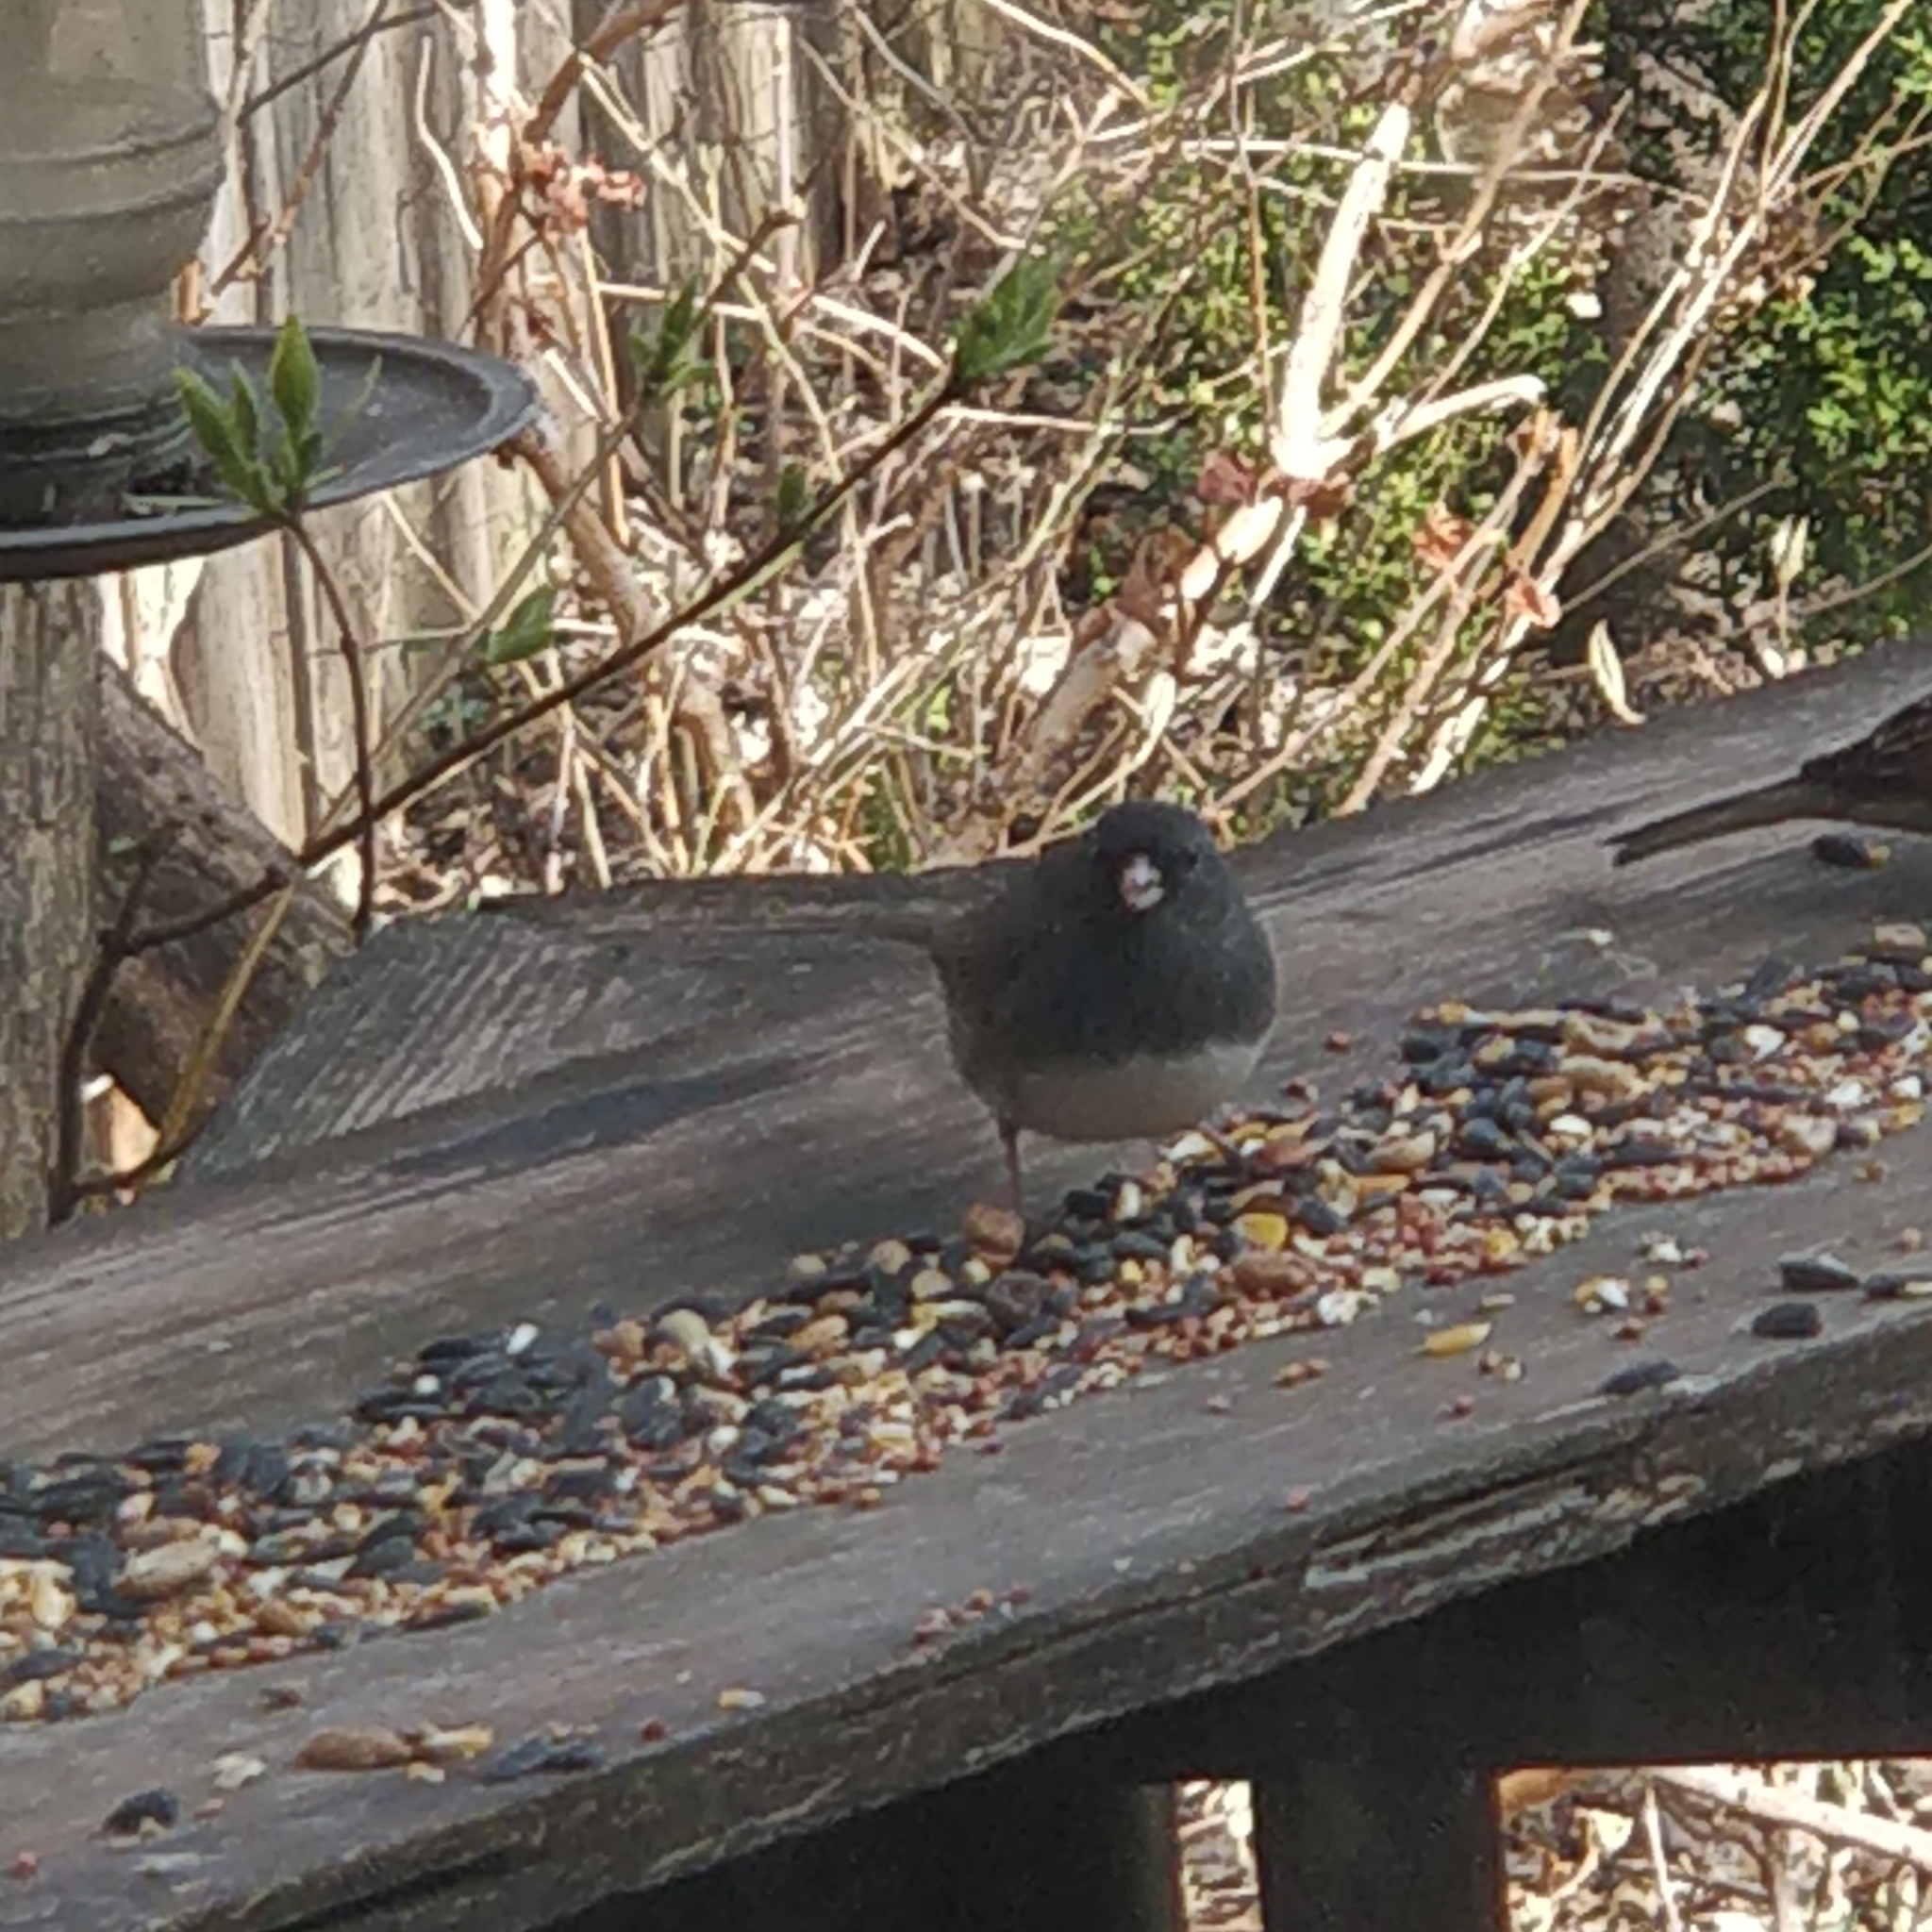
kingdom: Animalia
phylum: Chordata
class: Aves
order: Passeriformes
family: Passerellidae
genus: Junco
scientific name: Junco hyemalis
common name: Dark-eyed junco
